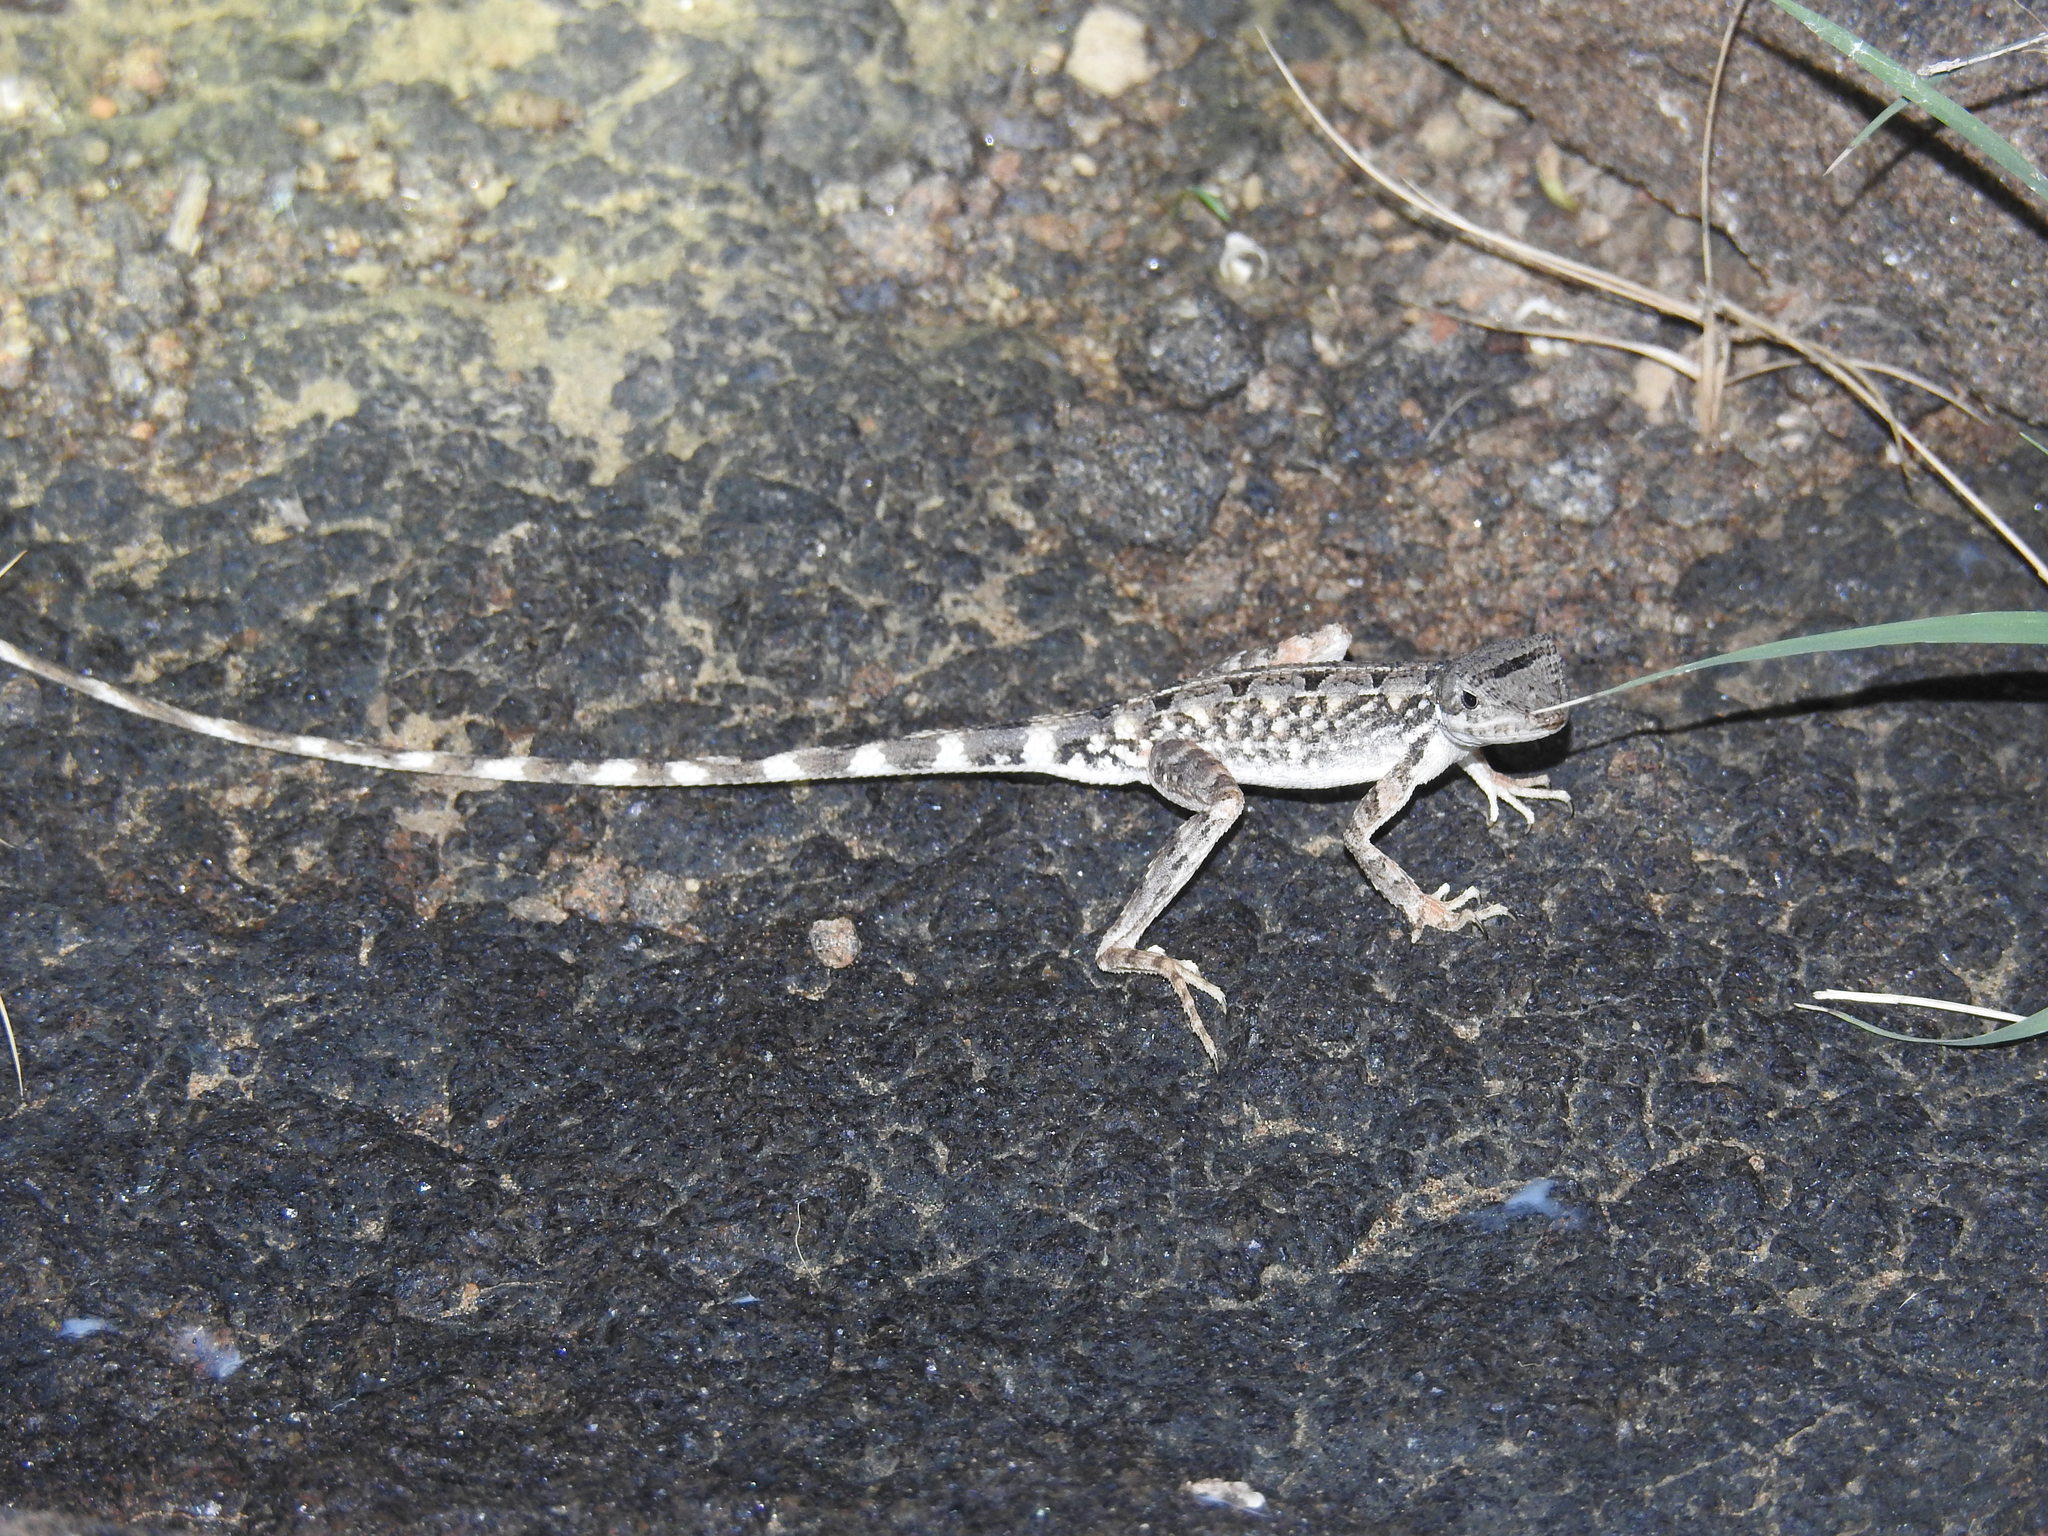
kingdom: Animalia
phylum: Chordata
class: Squamata
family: Agamidae
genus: Sitana
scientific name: Sitana spinaecephalus
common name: Spiny-headed fan-throated lizard
